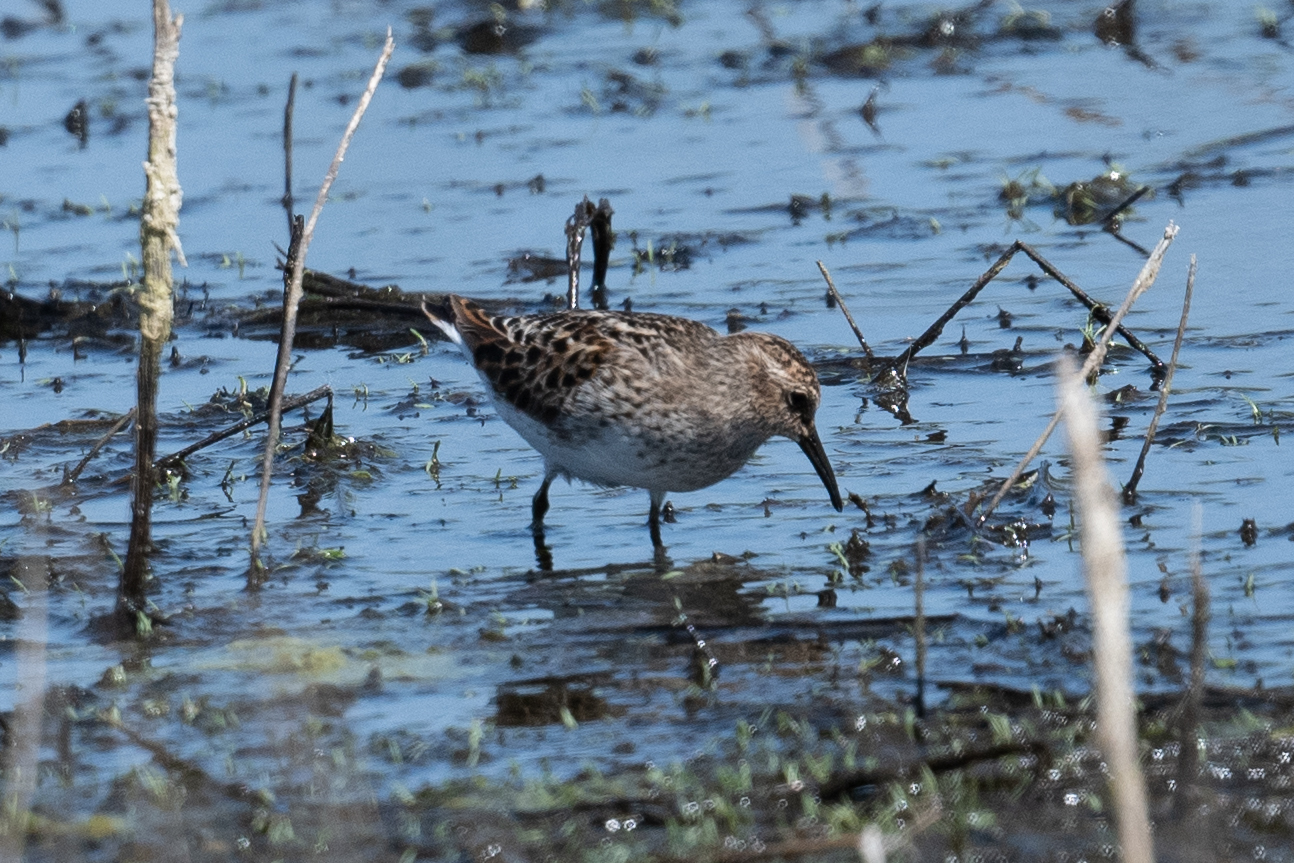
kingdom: Animalia
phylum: Chordata
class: Aves
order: Charadriiformes
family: Scolopacidae
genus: Calidris
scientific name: Calidris minutilla
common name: Least sandpiper
